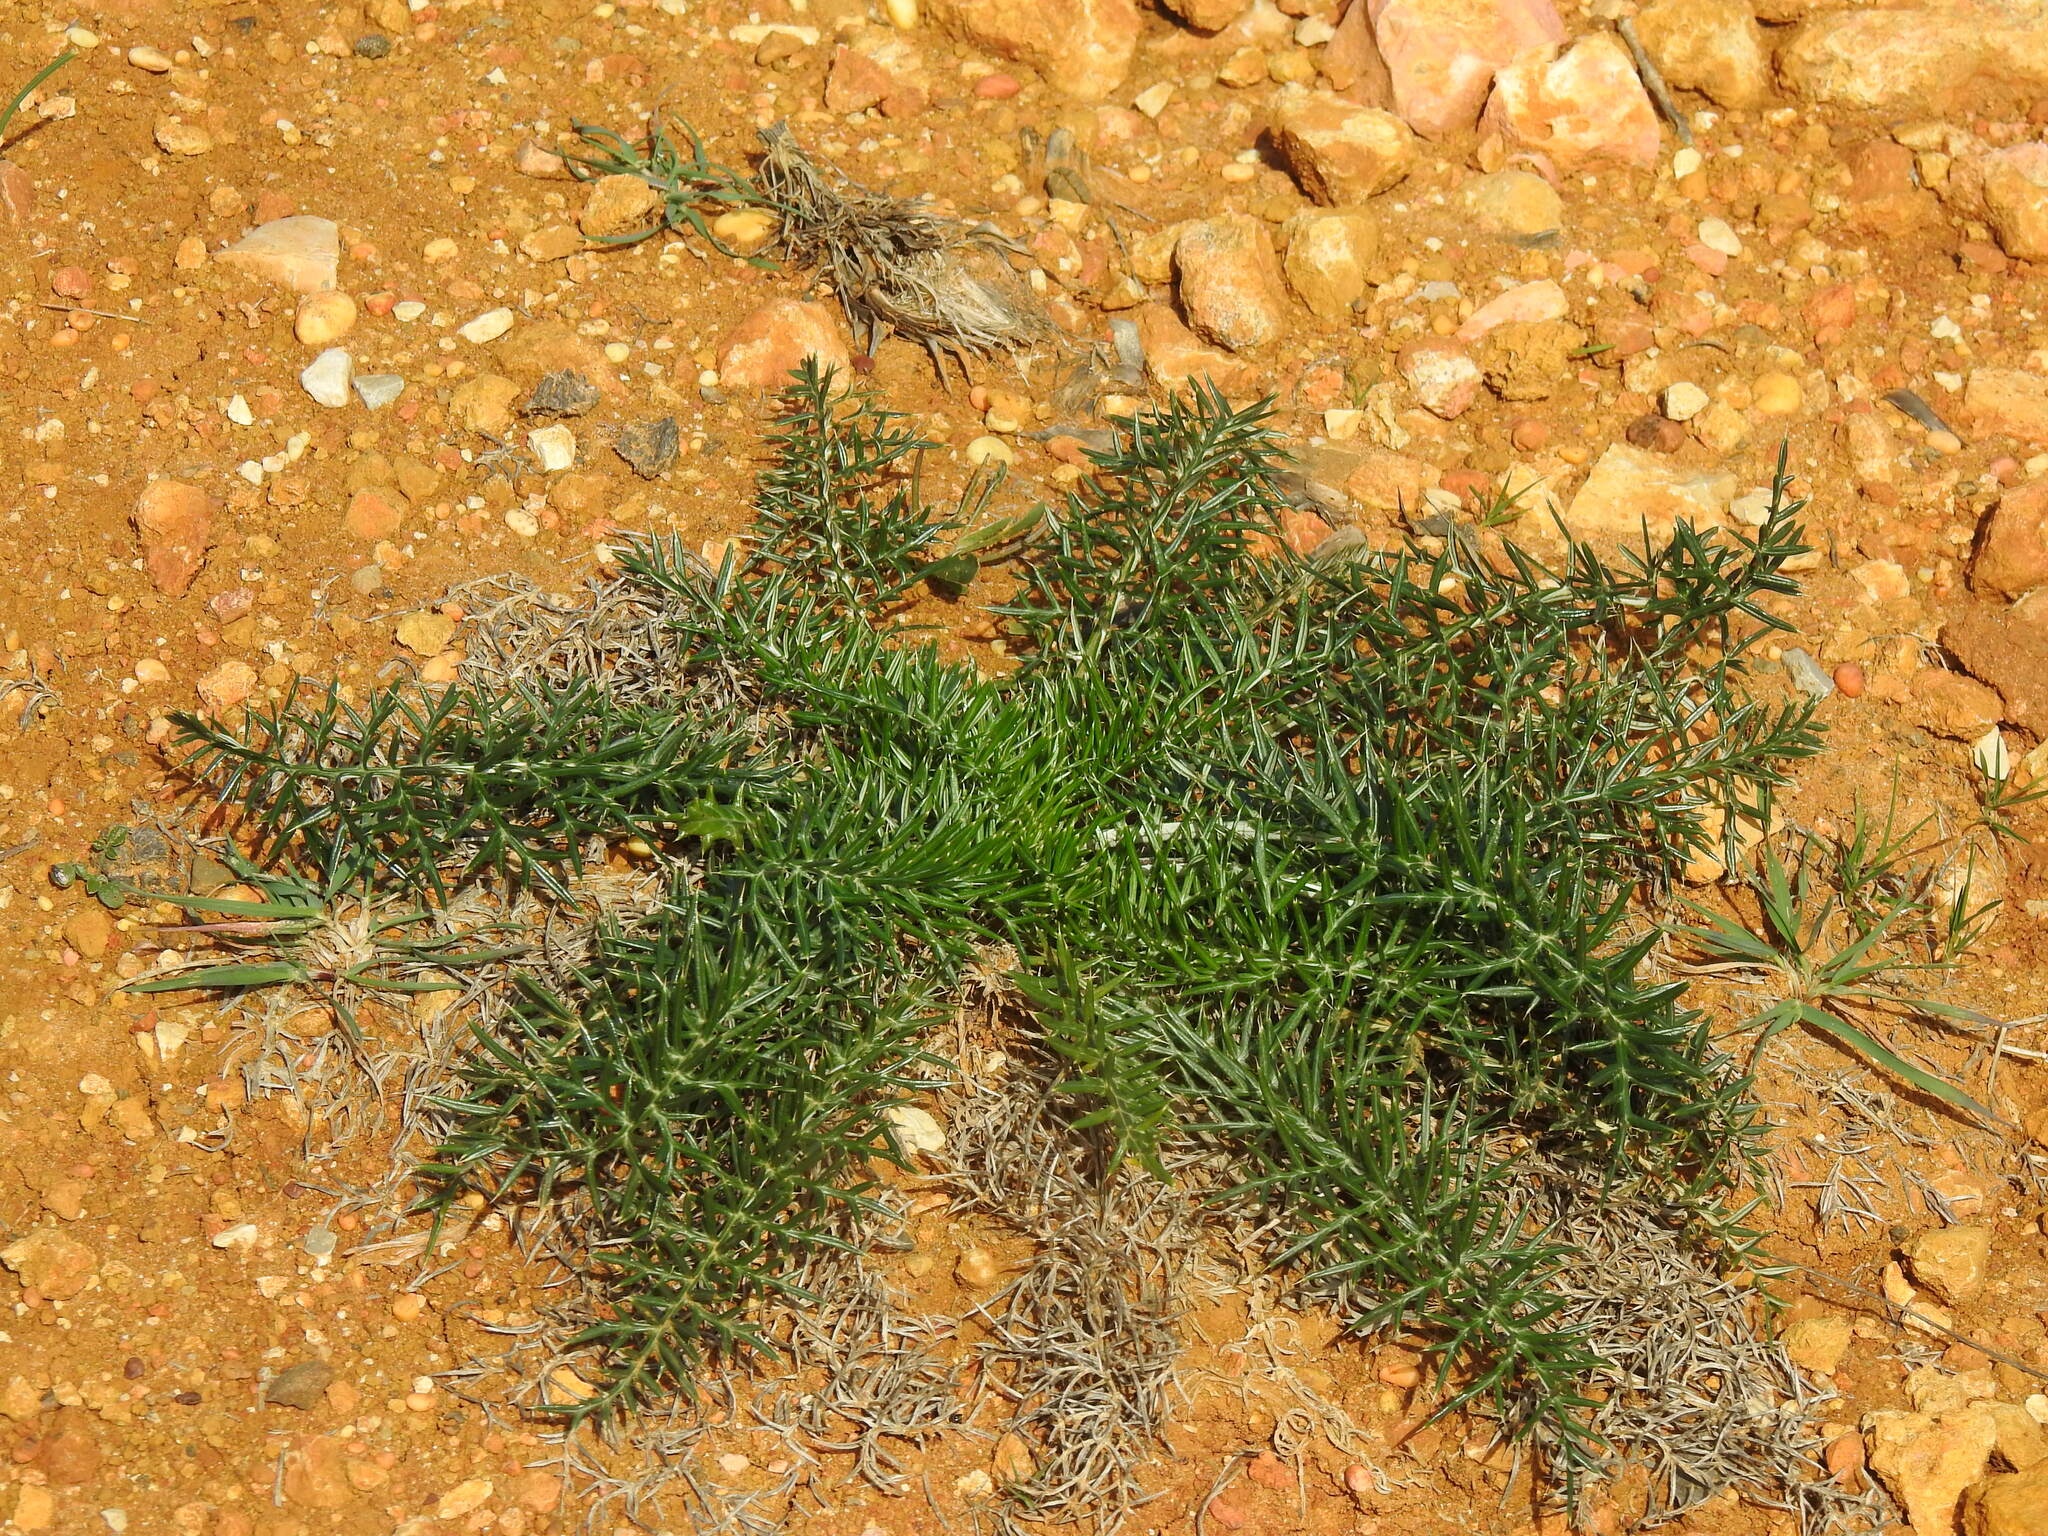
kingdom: Plantae
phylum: Tracheophyta
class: Magnoliopsida
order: Asterales
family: Asteraceae
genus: Cynara
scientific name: Cynara humilis
